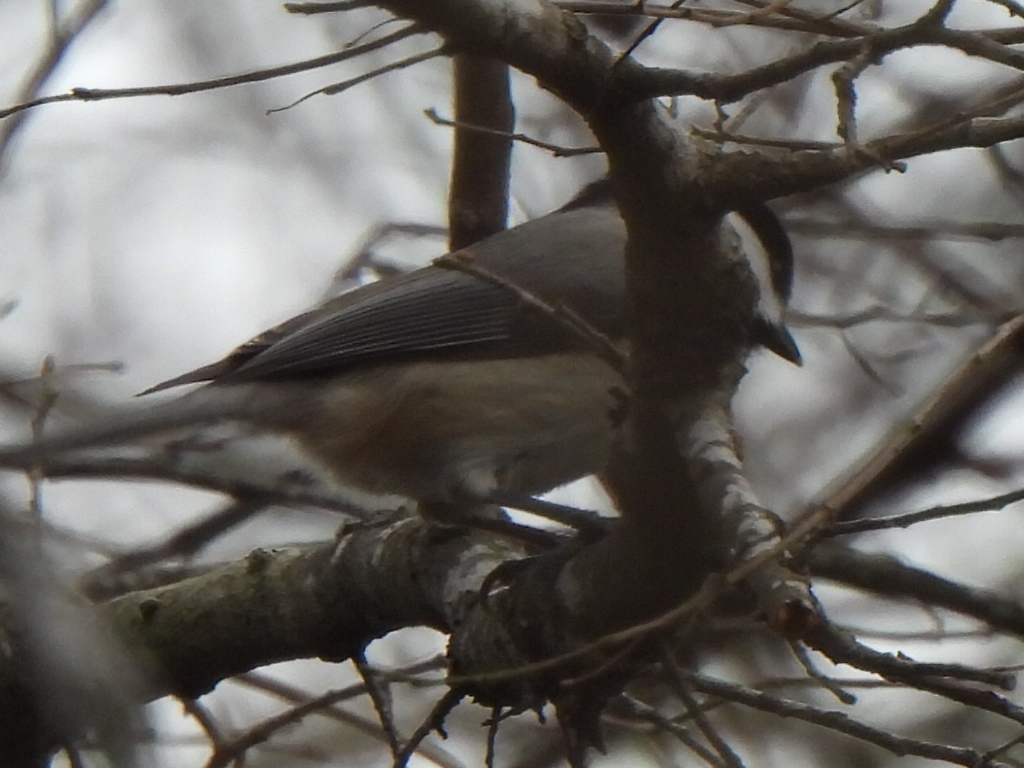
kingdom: Animalia
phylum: Chordata
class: Aves
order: Passeriformes
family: Paridae
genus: Poecile
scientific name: Poecile carolinensis
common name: Carolina chickadee
